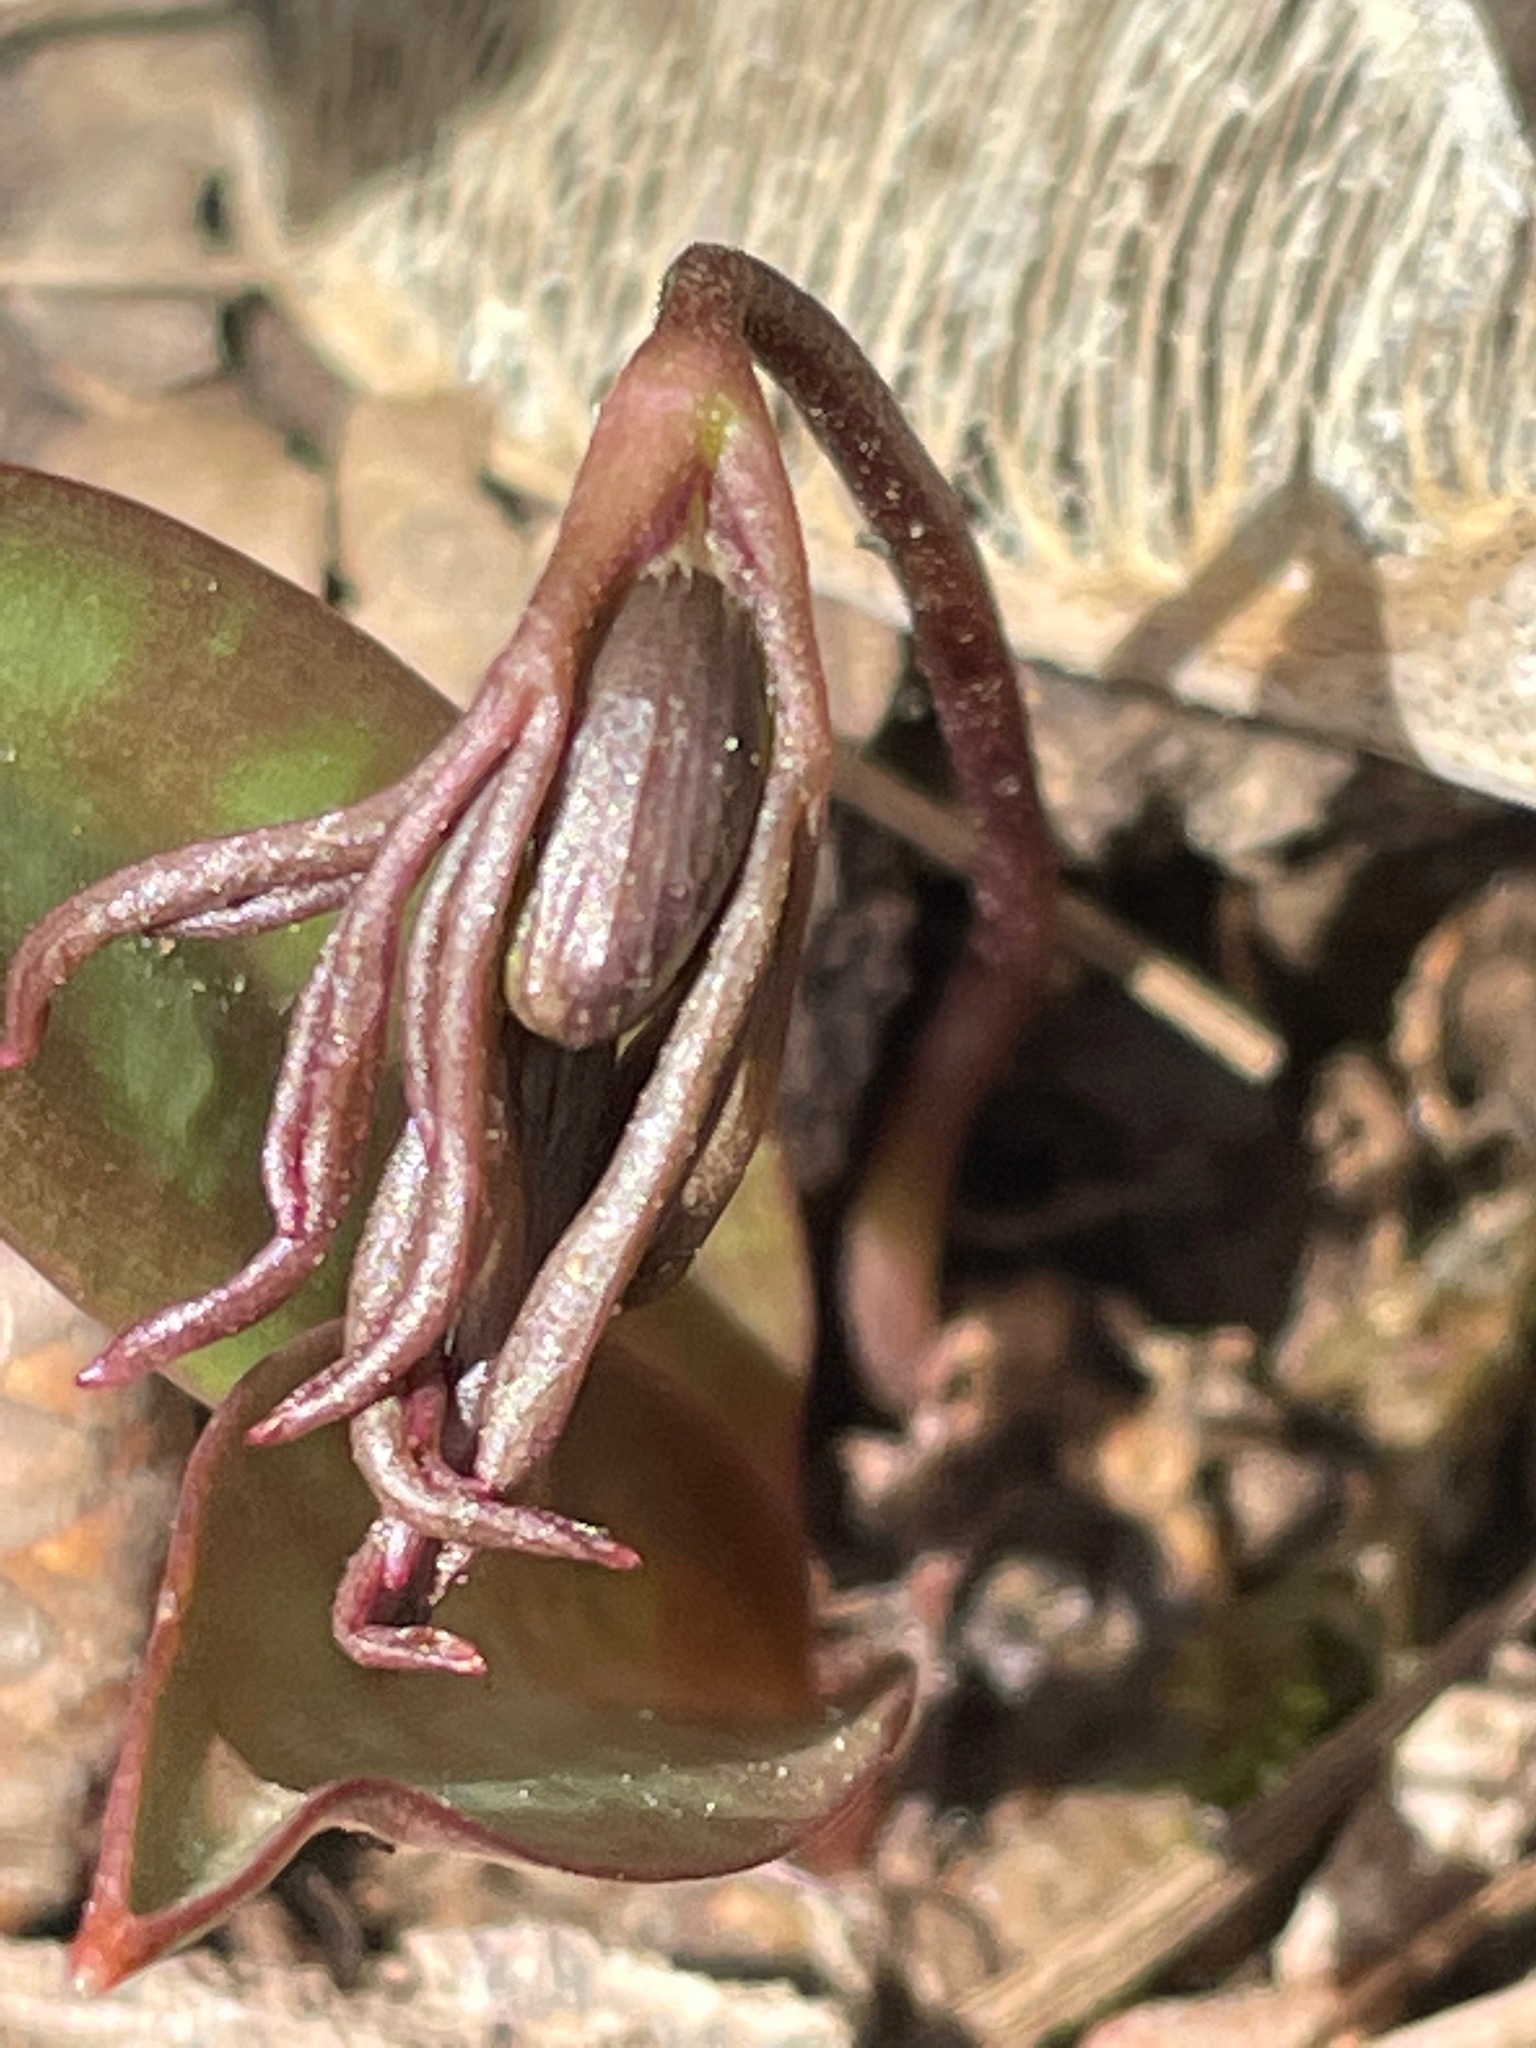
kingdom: Plantae
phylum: Tracheophyta
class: Magnoliopsida
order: Ranunculales
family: Ranunculaceae
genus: Anemone
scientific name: Anemone quinquefolia
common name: Wood anemone
